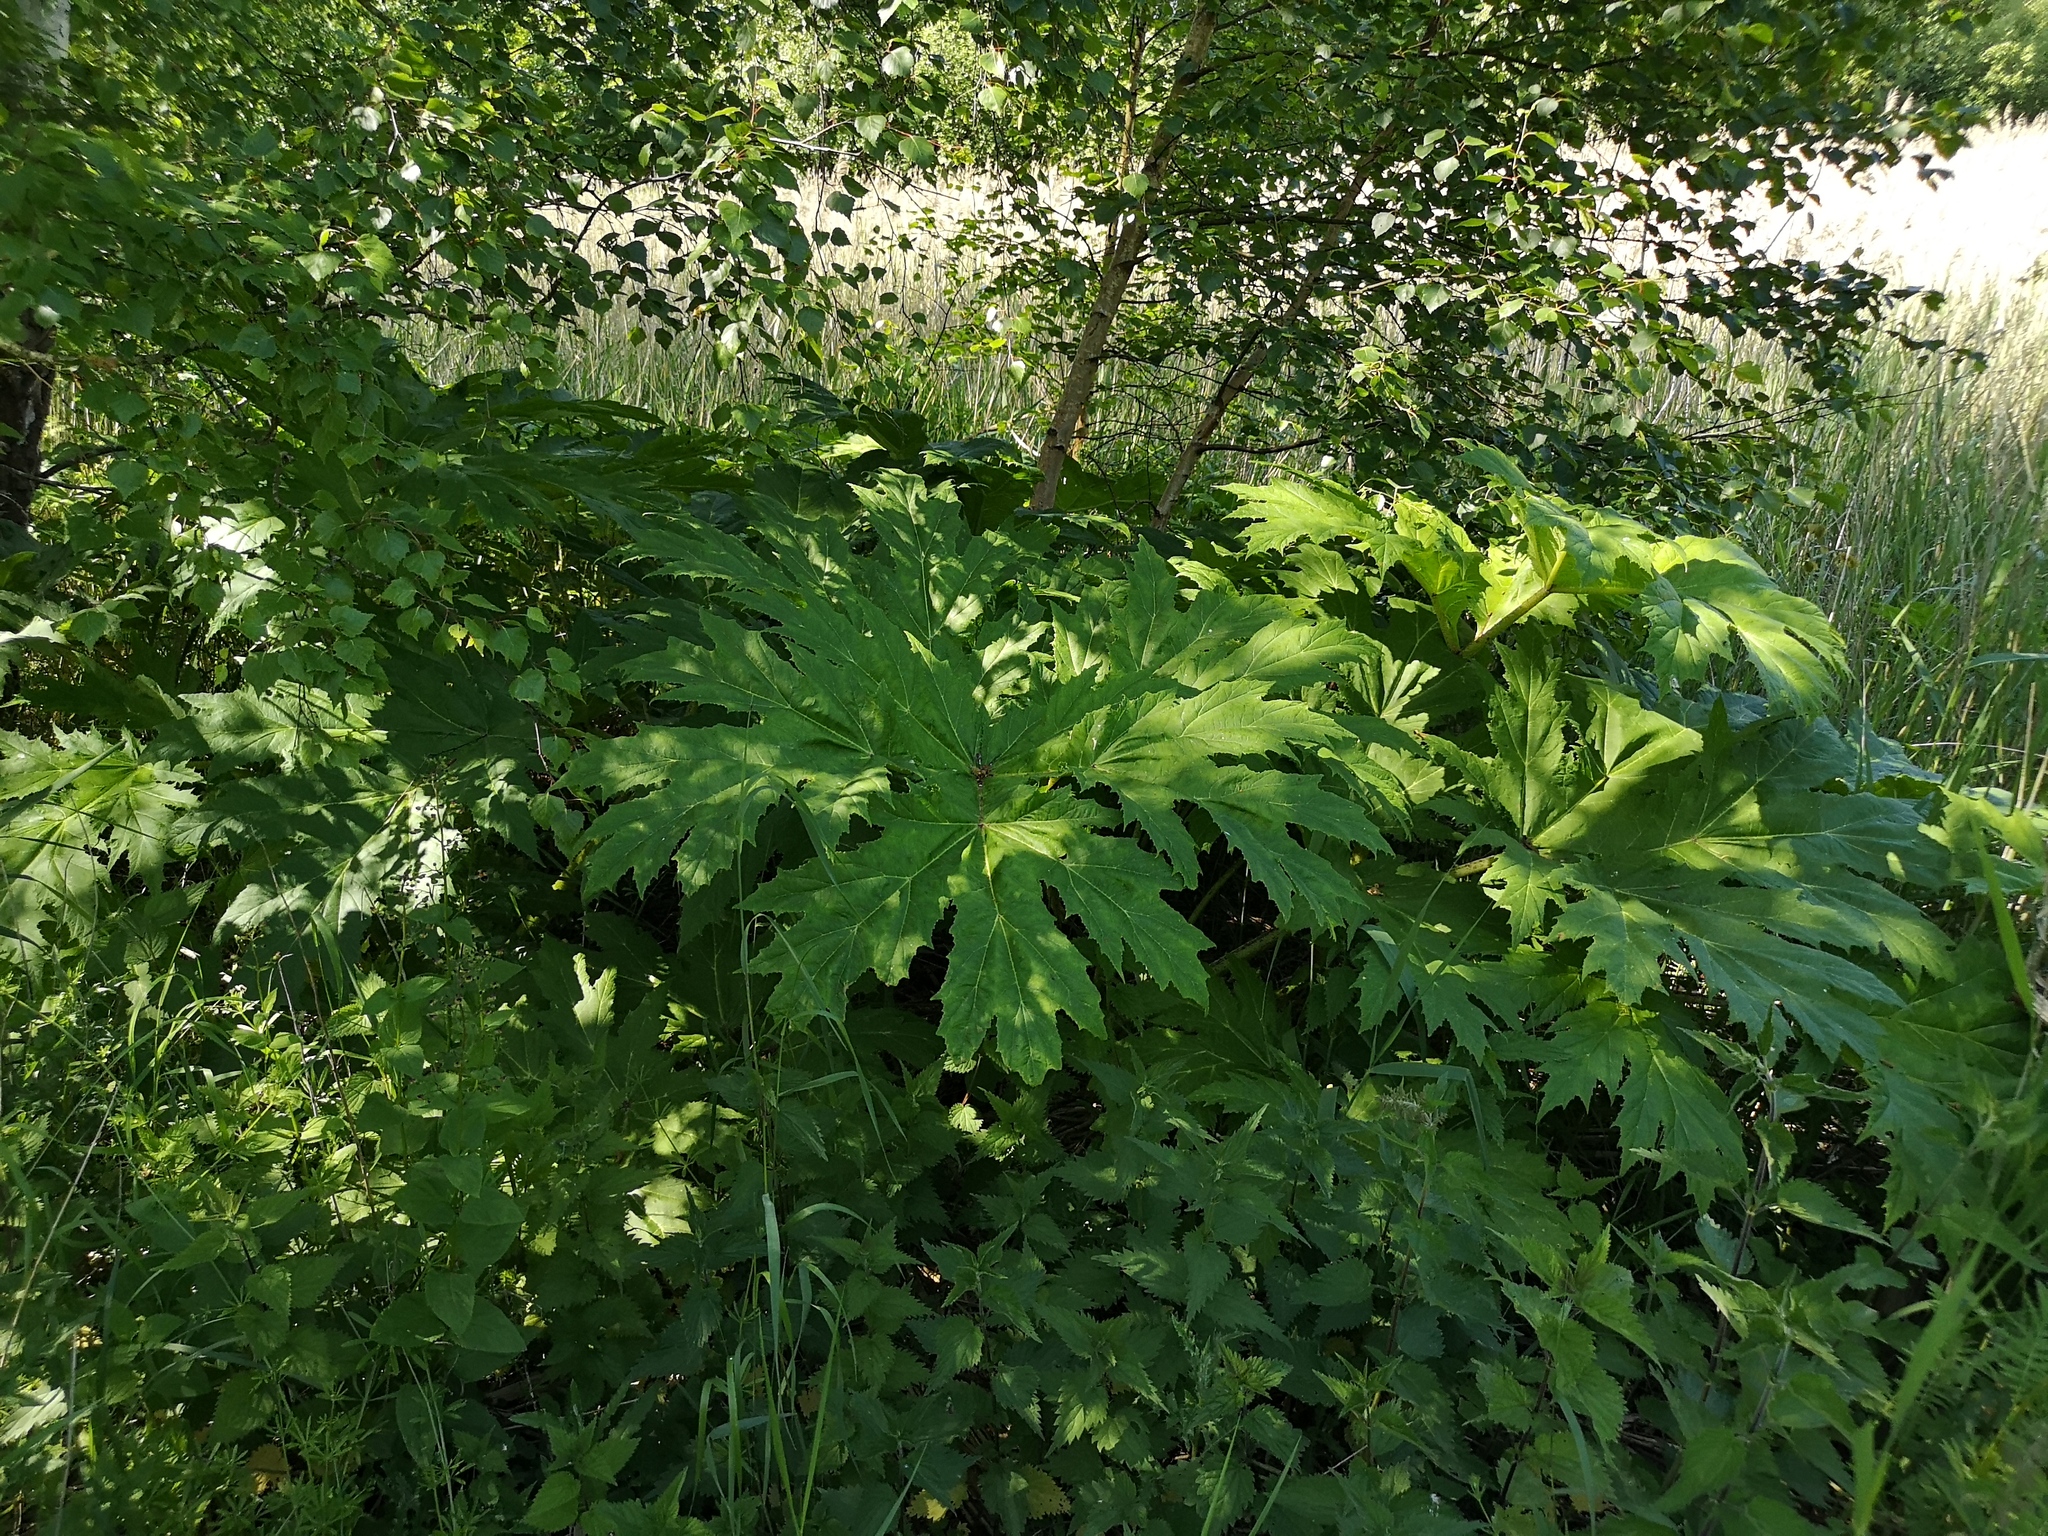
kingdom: Plantae
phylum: Tracheophyta
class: Magnoliopsida
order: Apiales
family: Apiaceae
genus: Heracleum
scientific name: Heracleum mantegazzianum
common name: Giant hogweed
